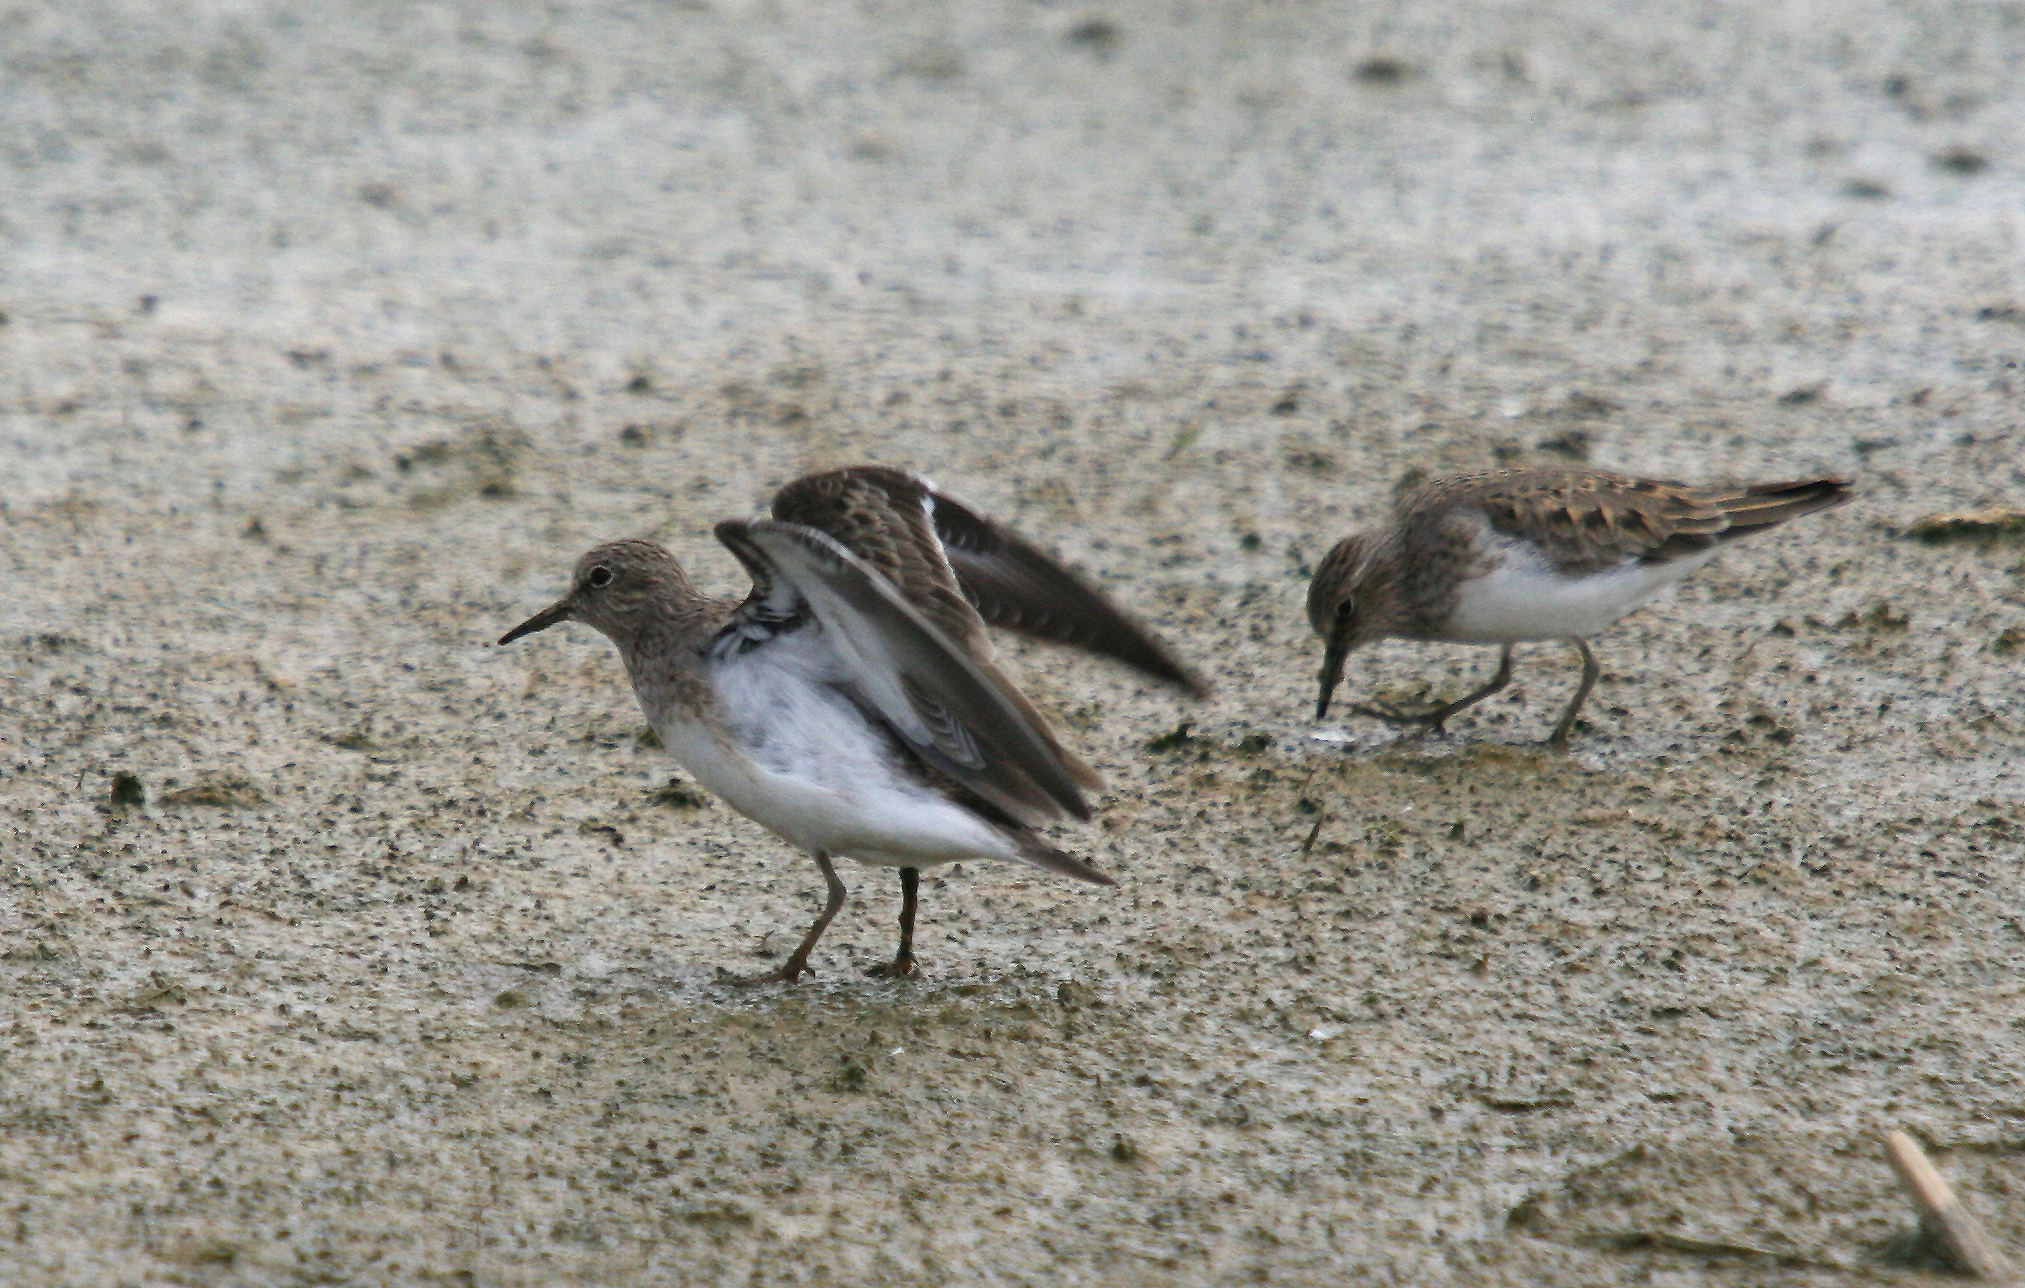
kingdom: Animalia
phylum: Chordata
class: Aves
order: Charadriiformes
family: Scolopacidae
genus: Calidris
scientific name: Calidris temminckii
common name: Temminck's stint
